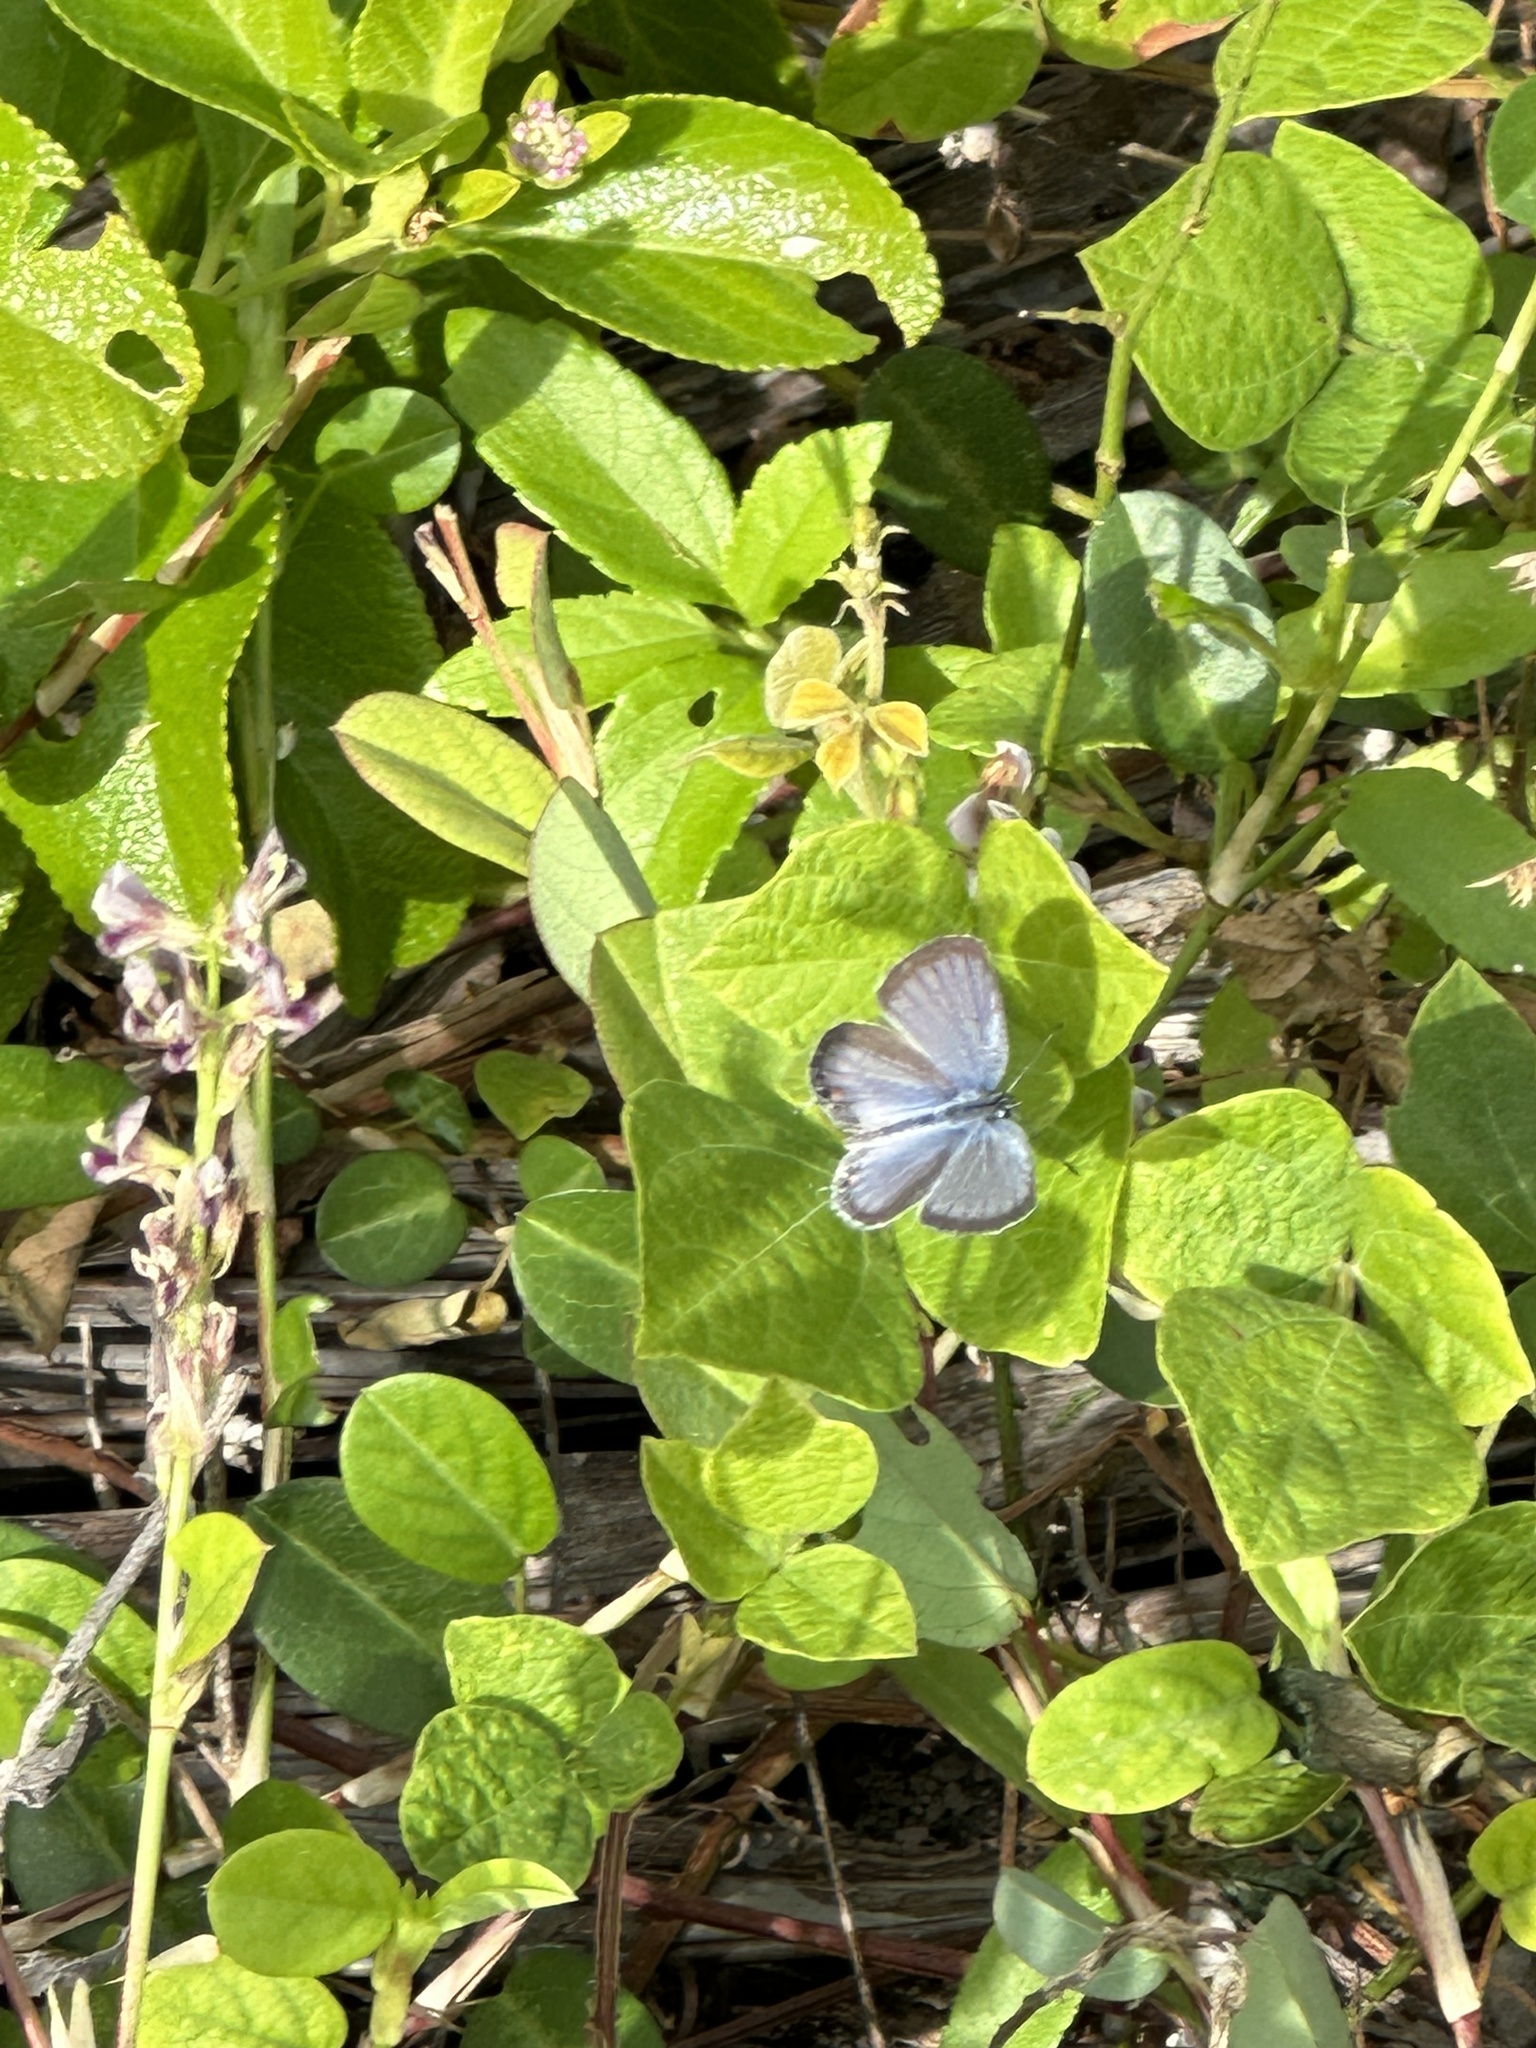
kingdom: Animalia
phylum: Arthropoda
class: Insecta
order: Lepidoptera
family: Lycaenidae
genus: Elkalyce
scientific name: Elkalyce texana
